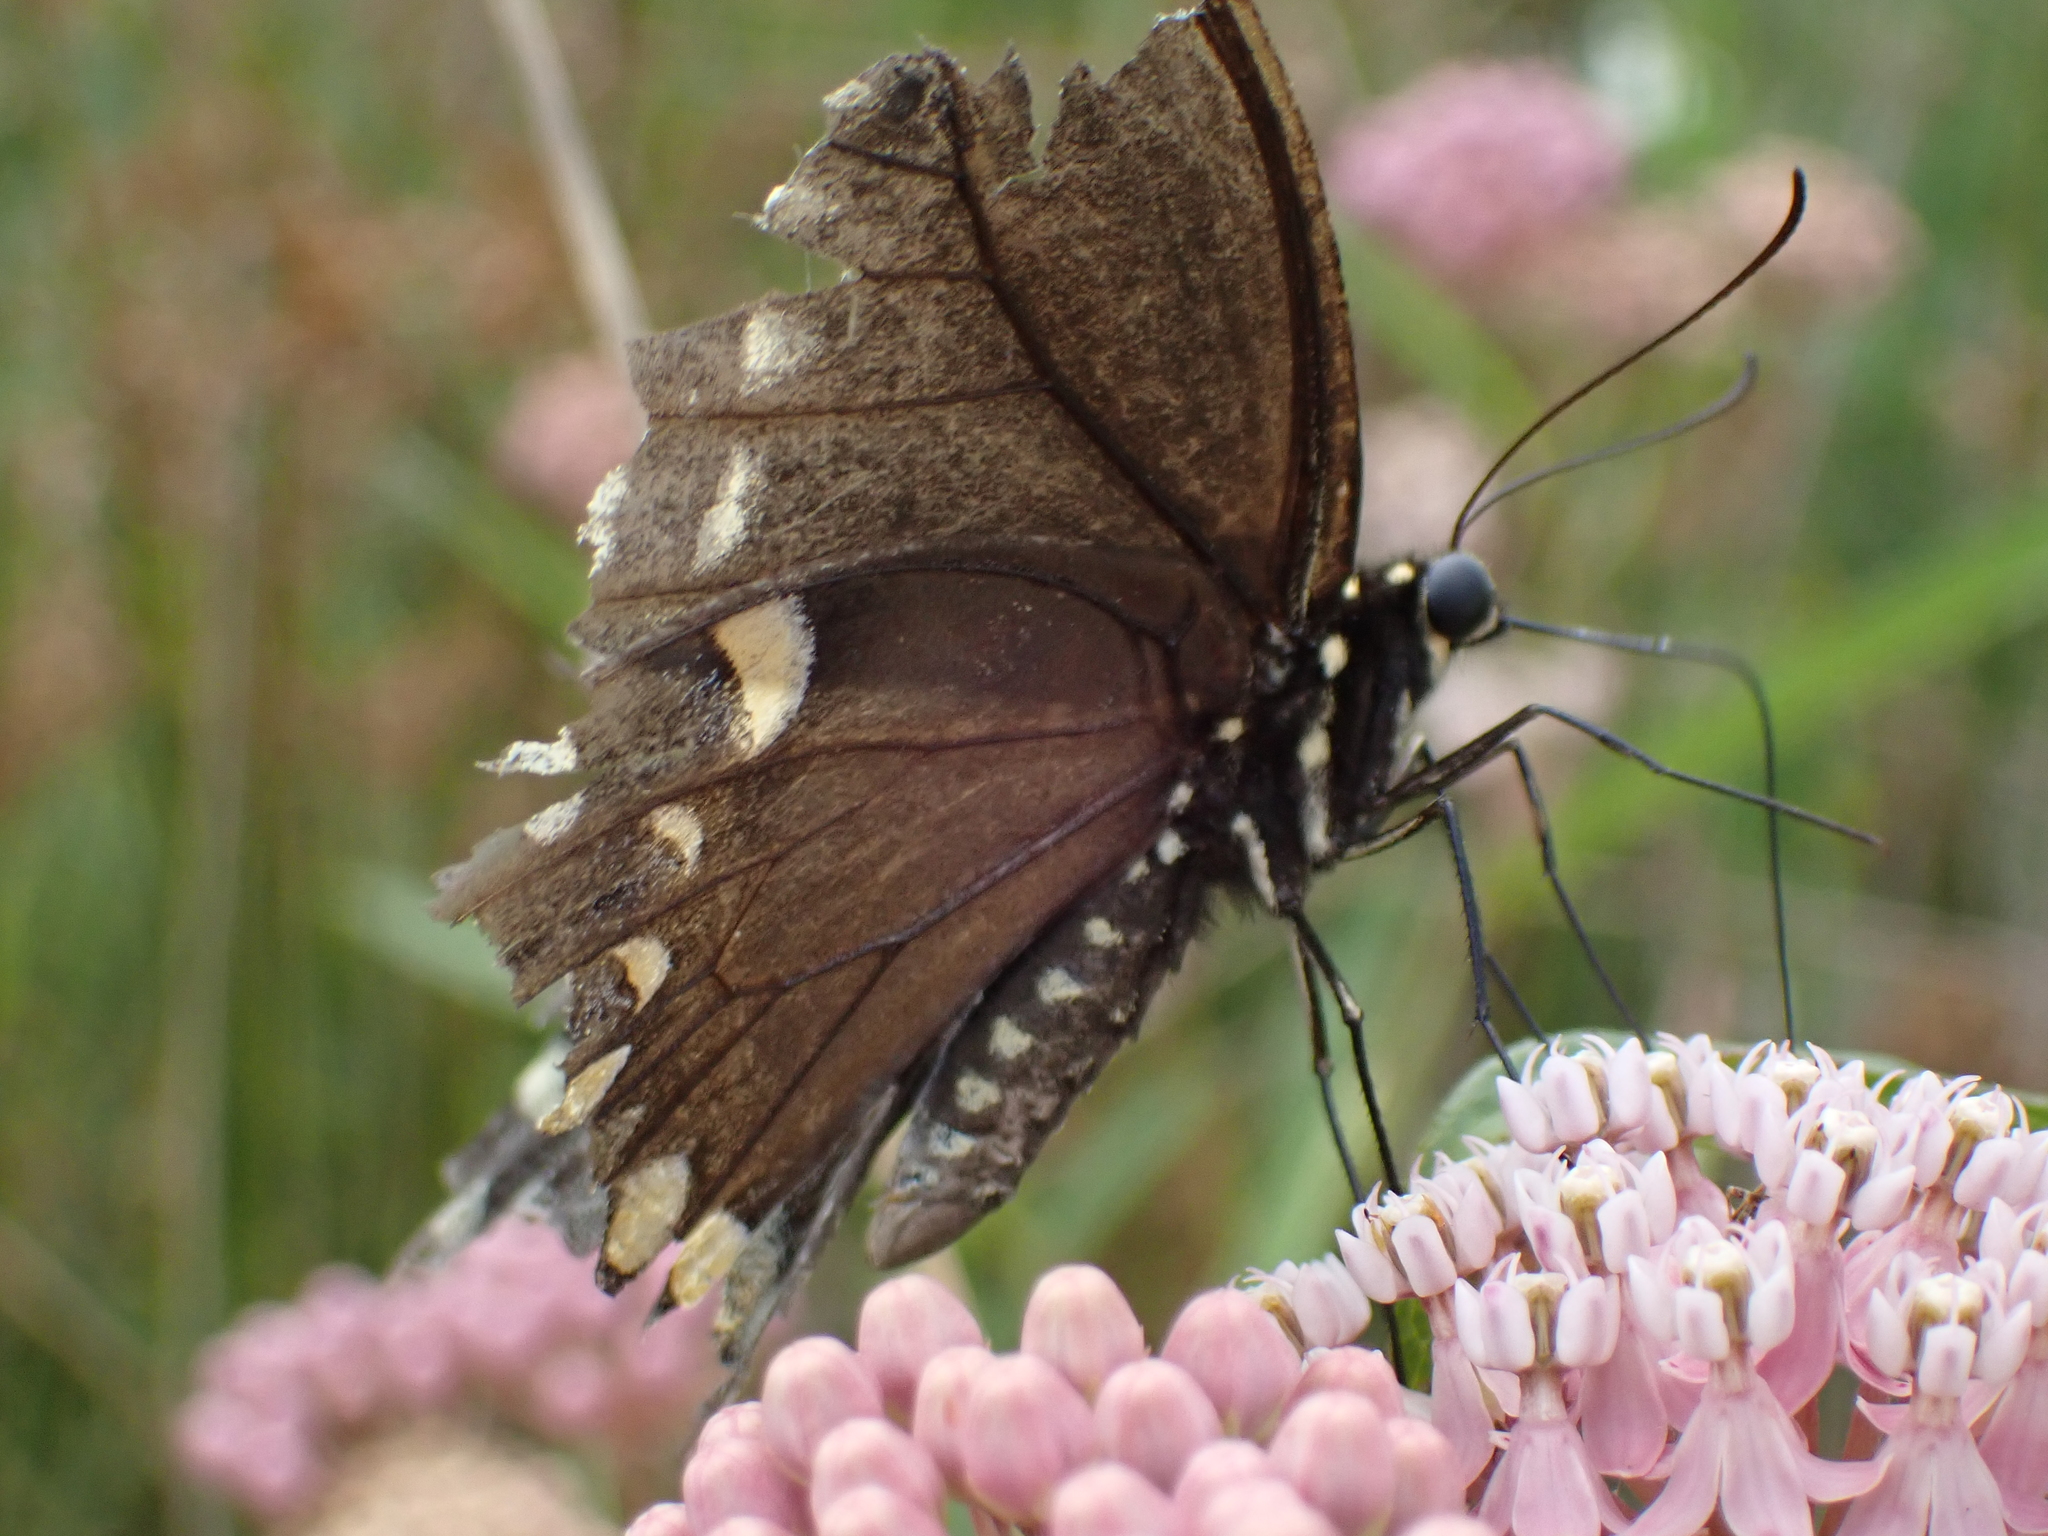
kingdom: Animalia
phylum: Arthropoda
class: Insecta
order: Lepidoptera
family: Papilionidae
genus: Papilio
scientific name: Papilio troilus
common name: Spicebush swallowtail
